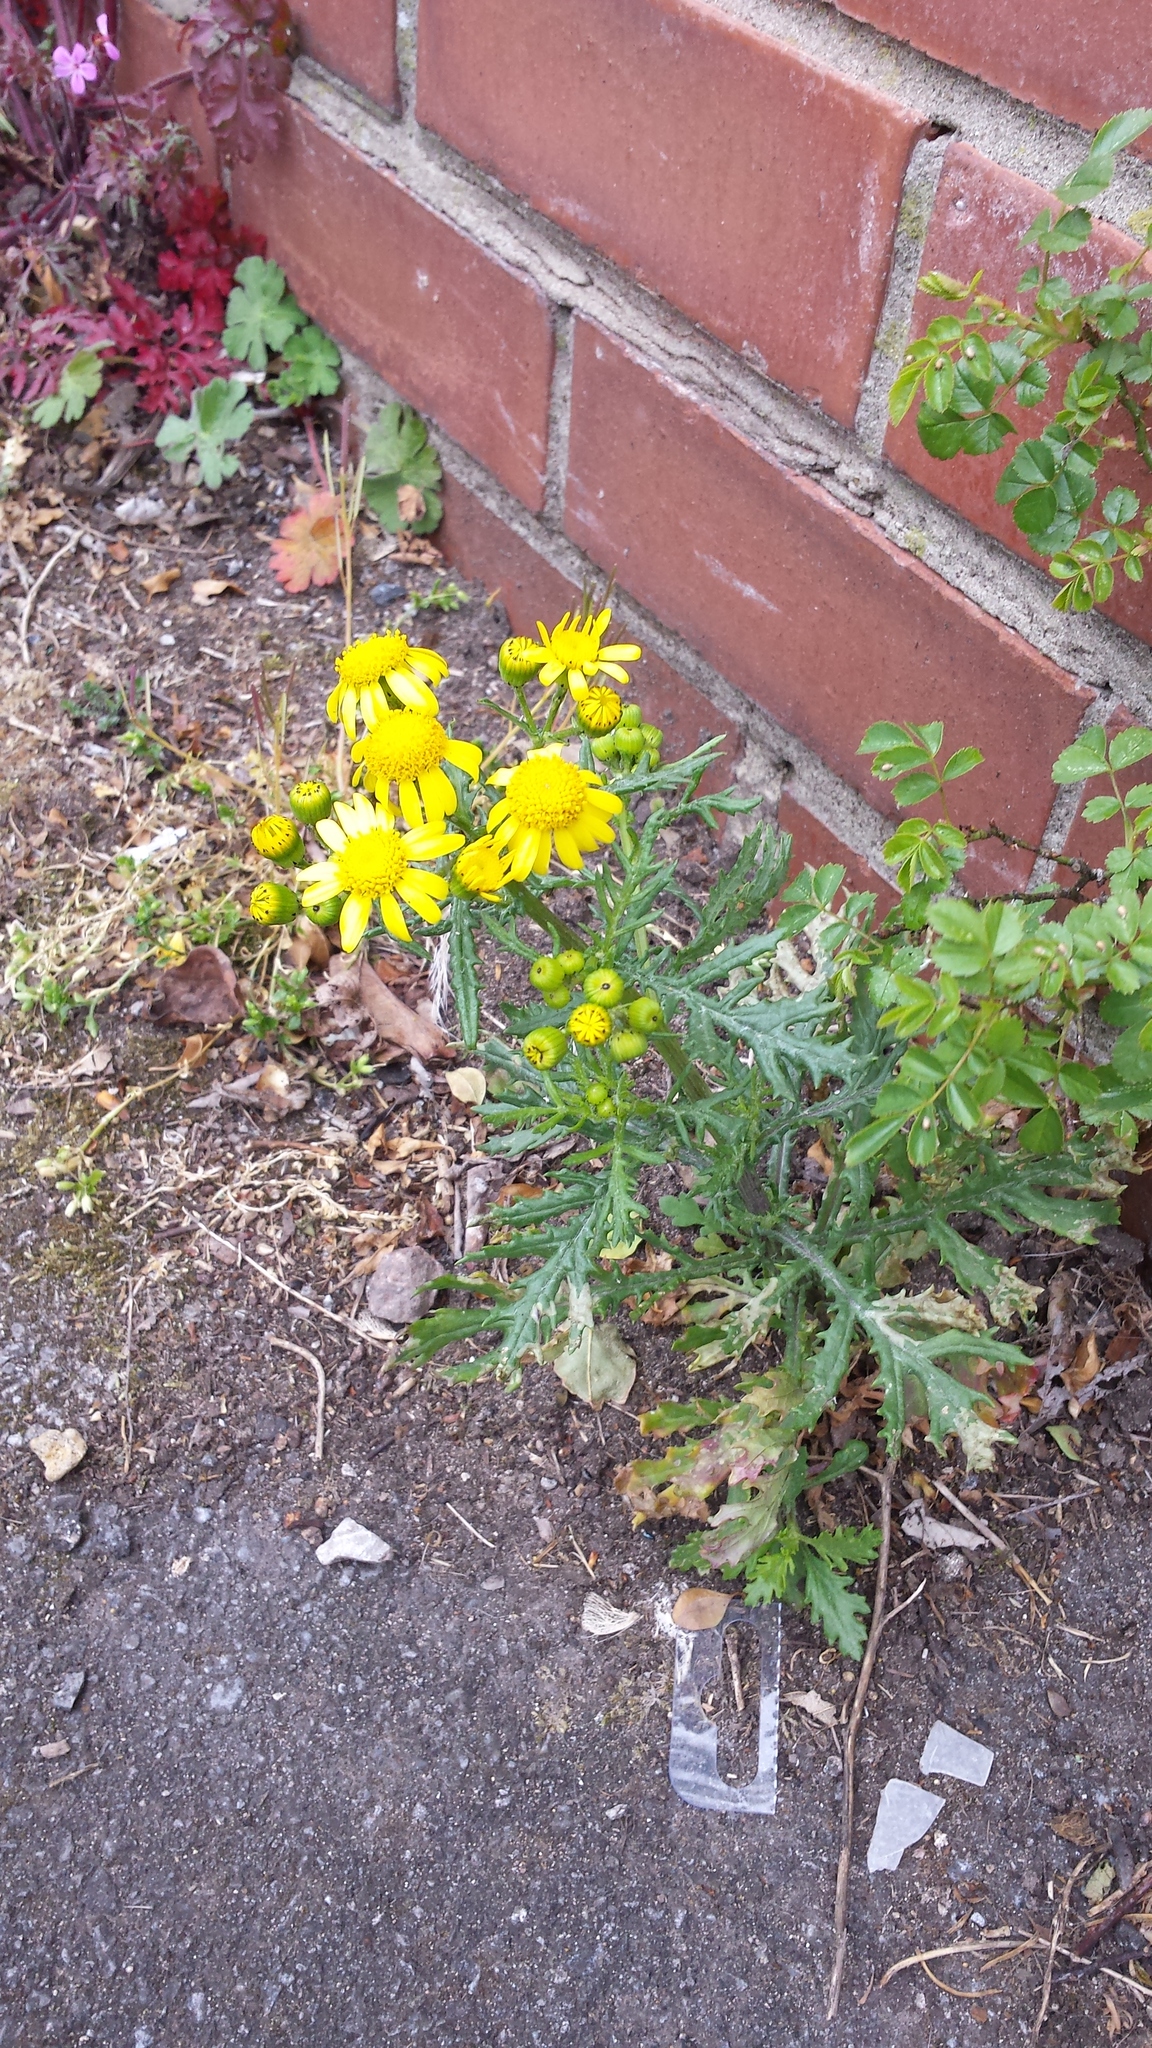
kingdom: Plantae
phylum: Tracheophyta
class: Magnoliopsida
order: Asterales
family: Asteraceae
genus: Senecio
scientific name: Senecio squalidus
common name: Oxford ragwort
